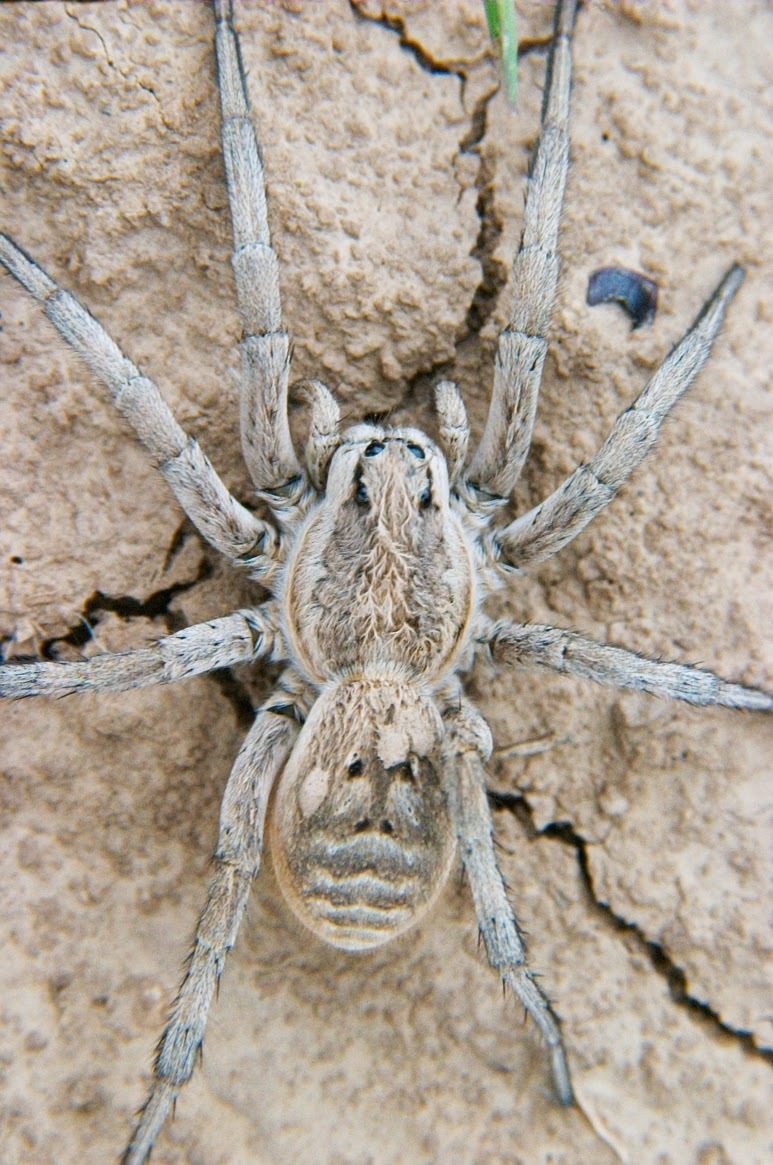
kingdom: Animalia
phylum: Arthropoda
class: Arachnida
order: Araneae
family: Lycosidae
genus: Lycosa
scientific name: Lycosa praegrandis
